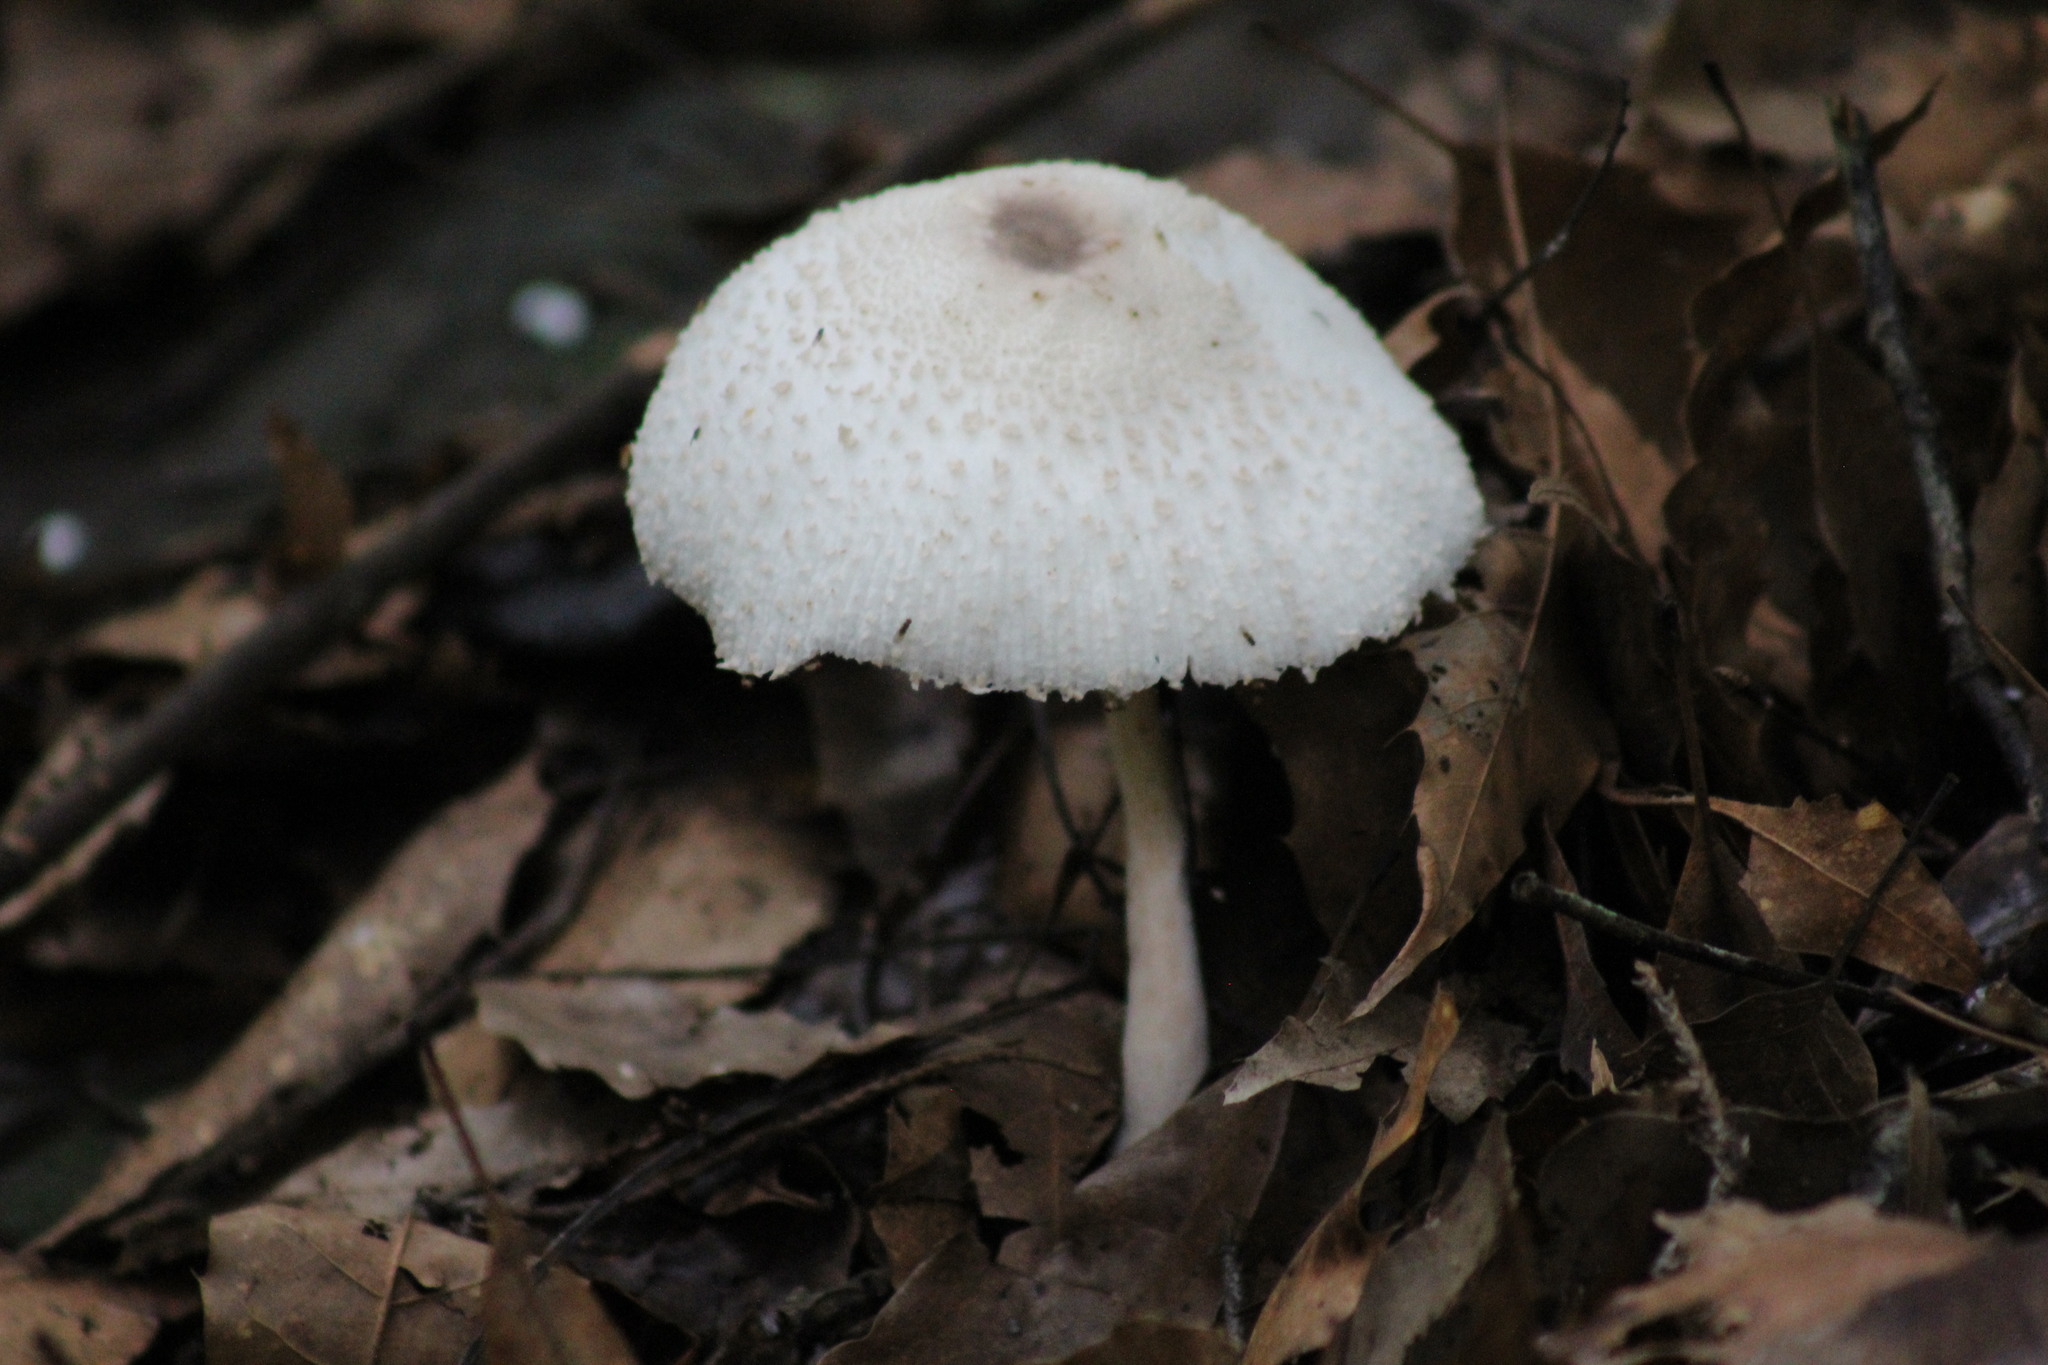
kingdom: Fungi
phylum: Basidiomycota
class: Agaricomycetes
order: Agaricales
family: Agaricaceae
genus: Leucocoprinus
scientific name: Leucocoprinus cepistipes
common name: Onion-stalk parasol
